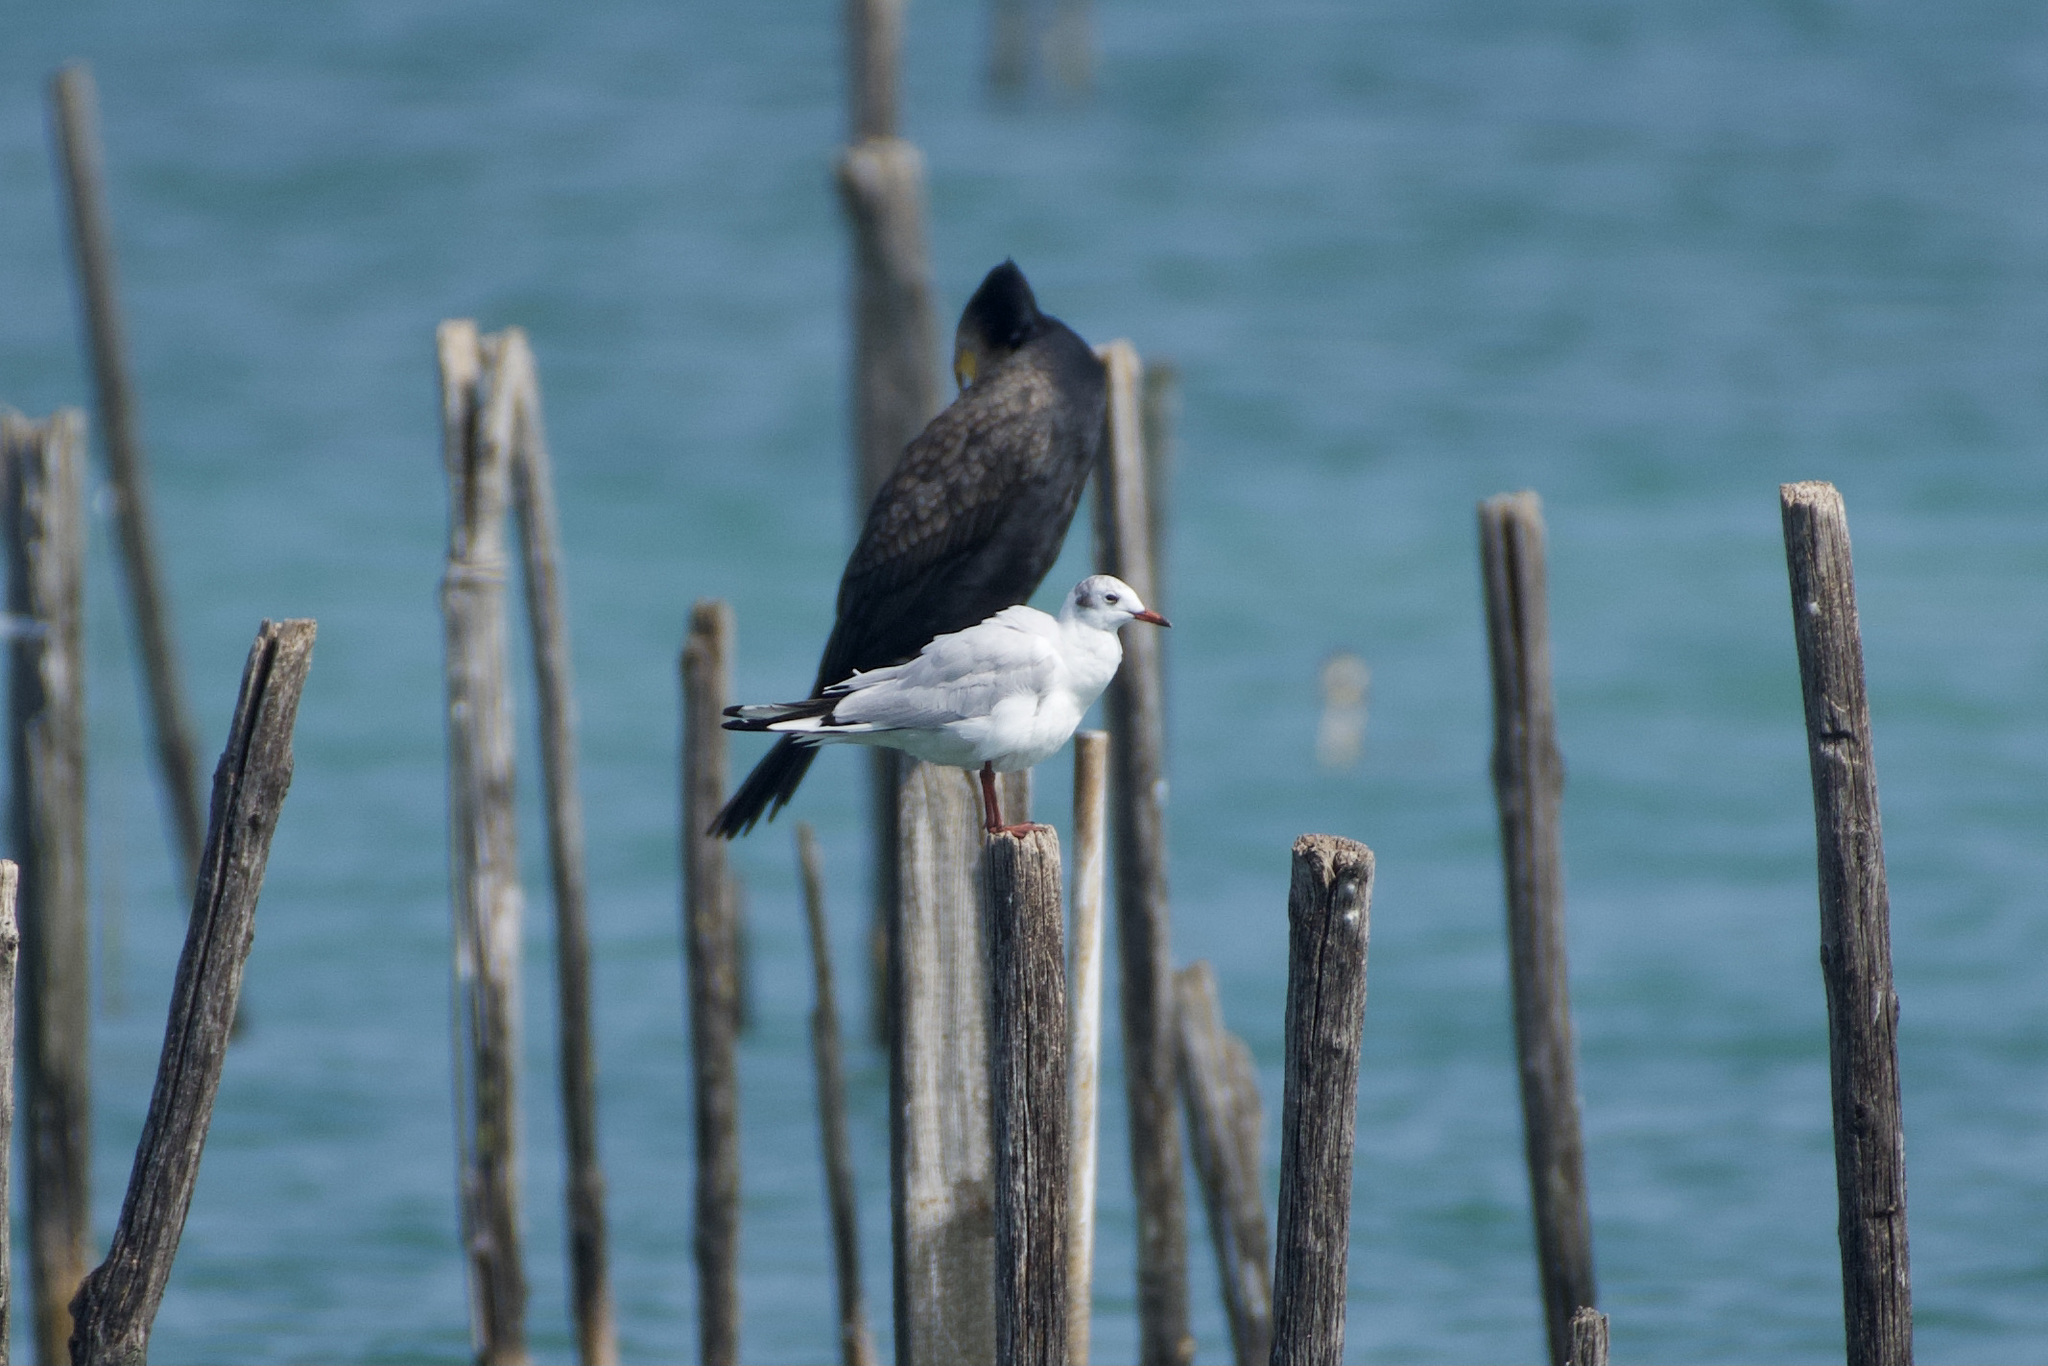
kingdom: Animalia
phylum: Chordata
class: Aves
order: Charadriiformes
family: Laridae
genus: Chroicocephalus
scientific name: Chroicocephalus ridibundus
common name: Black-headed gull
